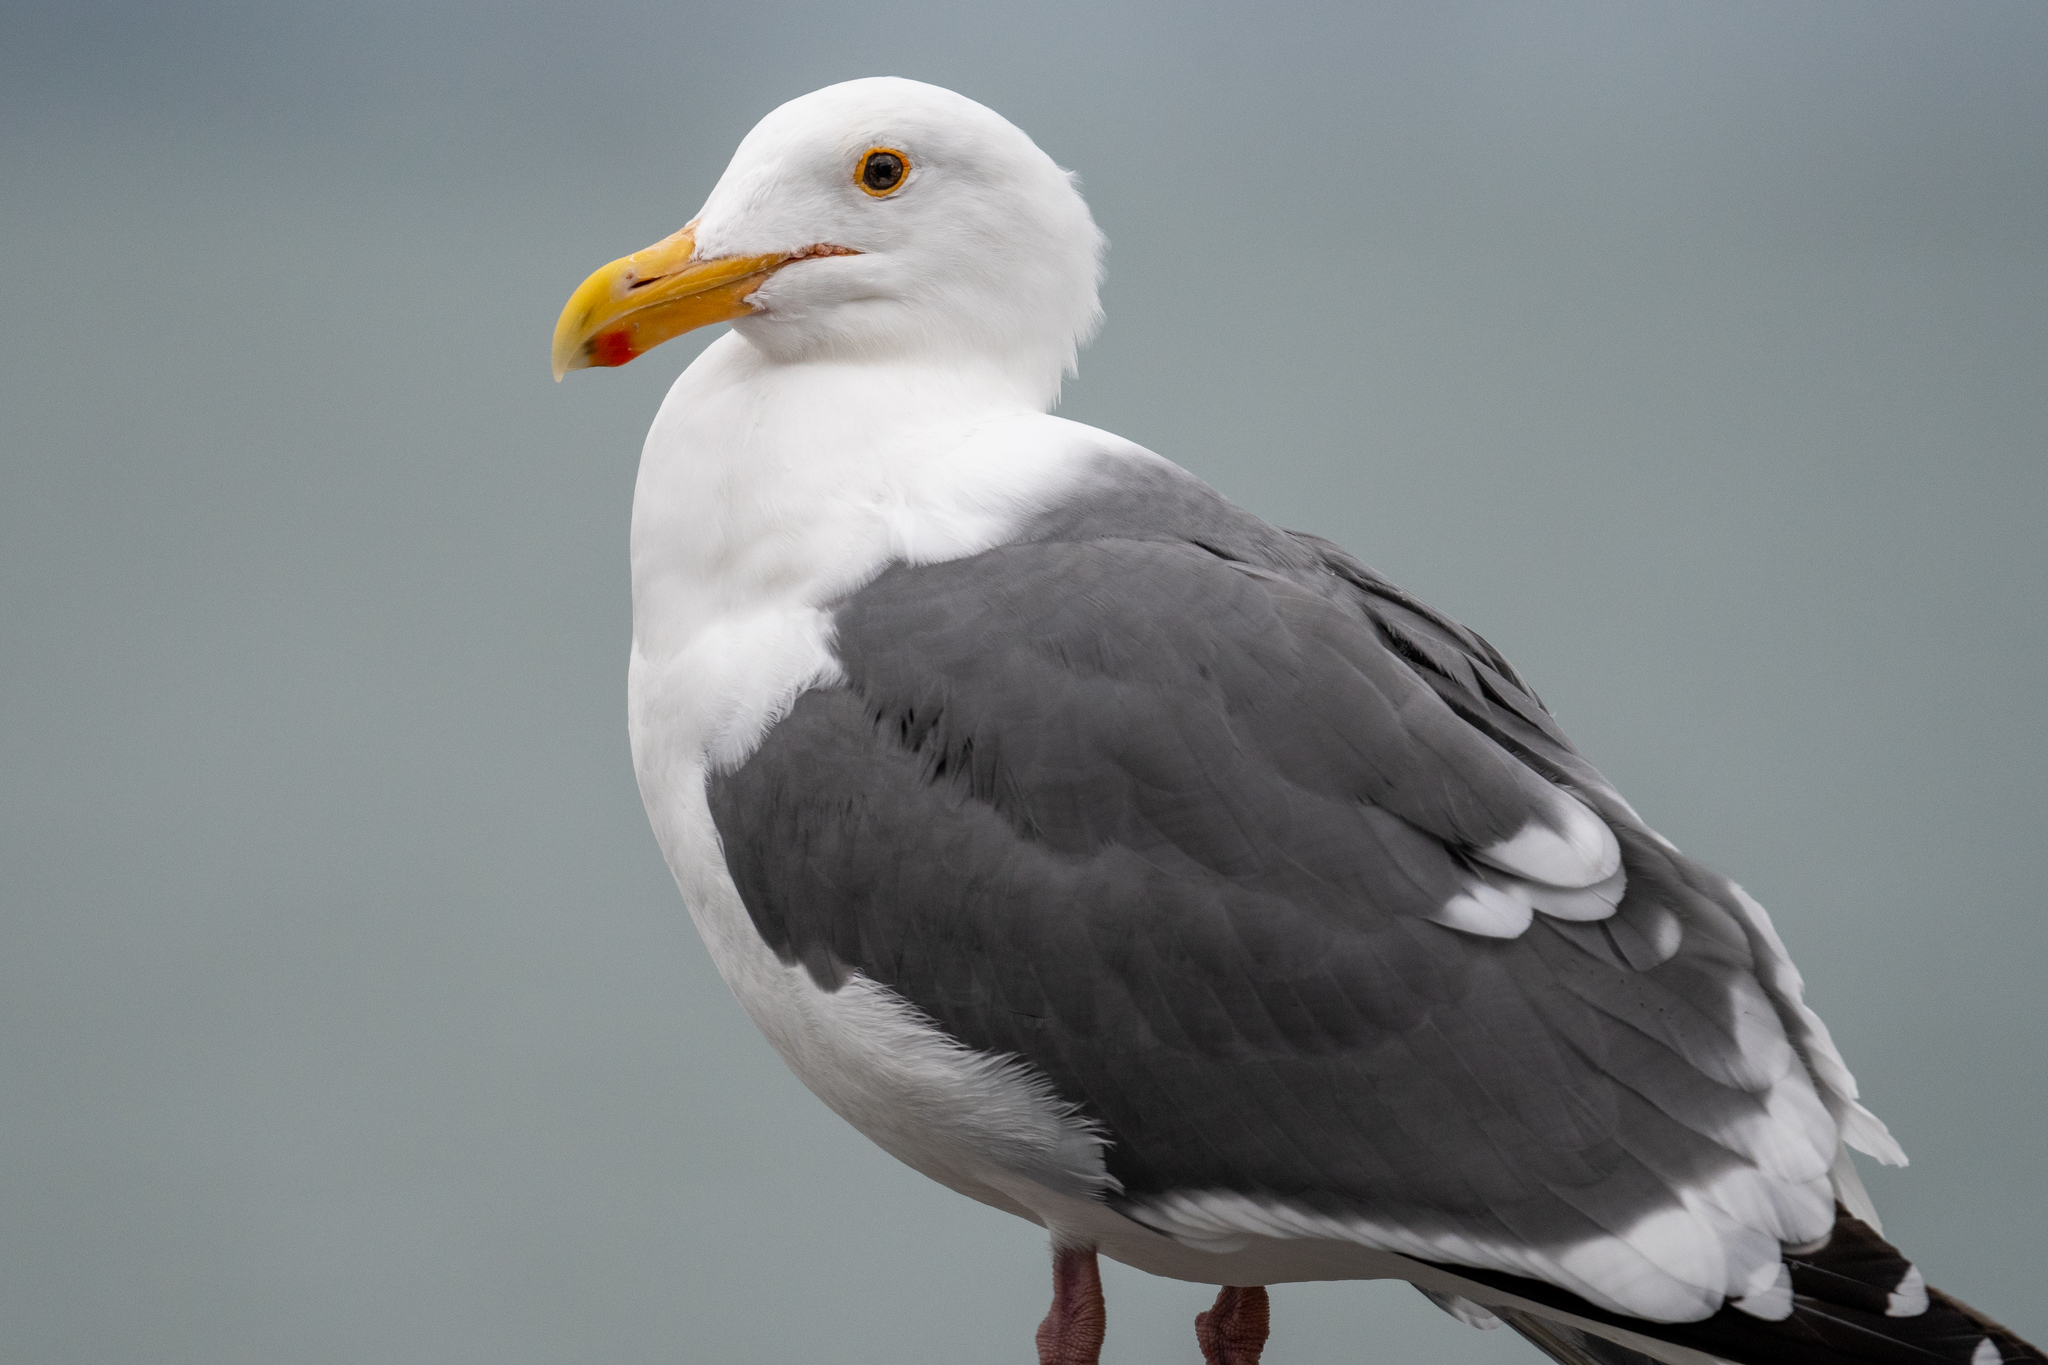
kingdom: Animalia
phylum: Chordata
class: Aves
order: Charadriiformes
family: Laridae
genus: Larus
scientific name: Larus occidentalis
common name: Western gull
